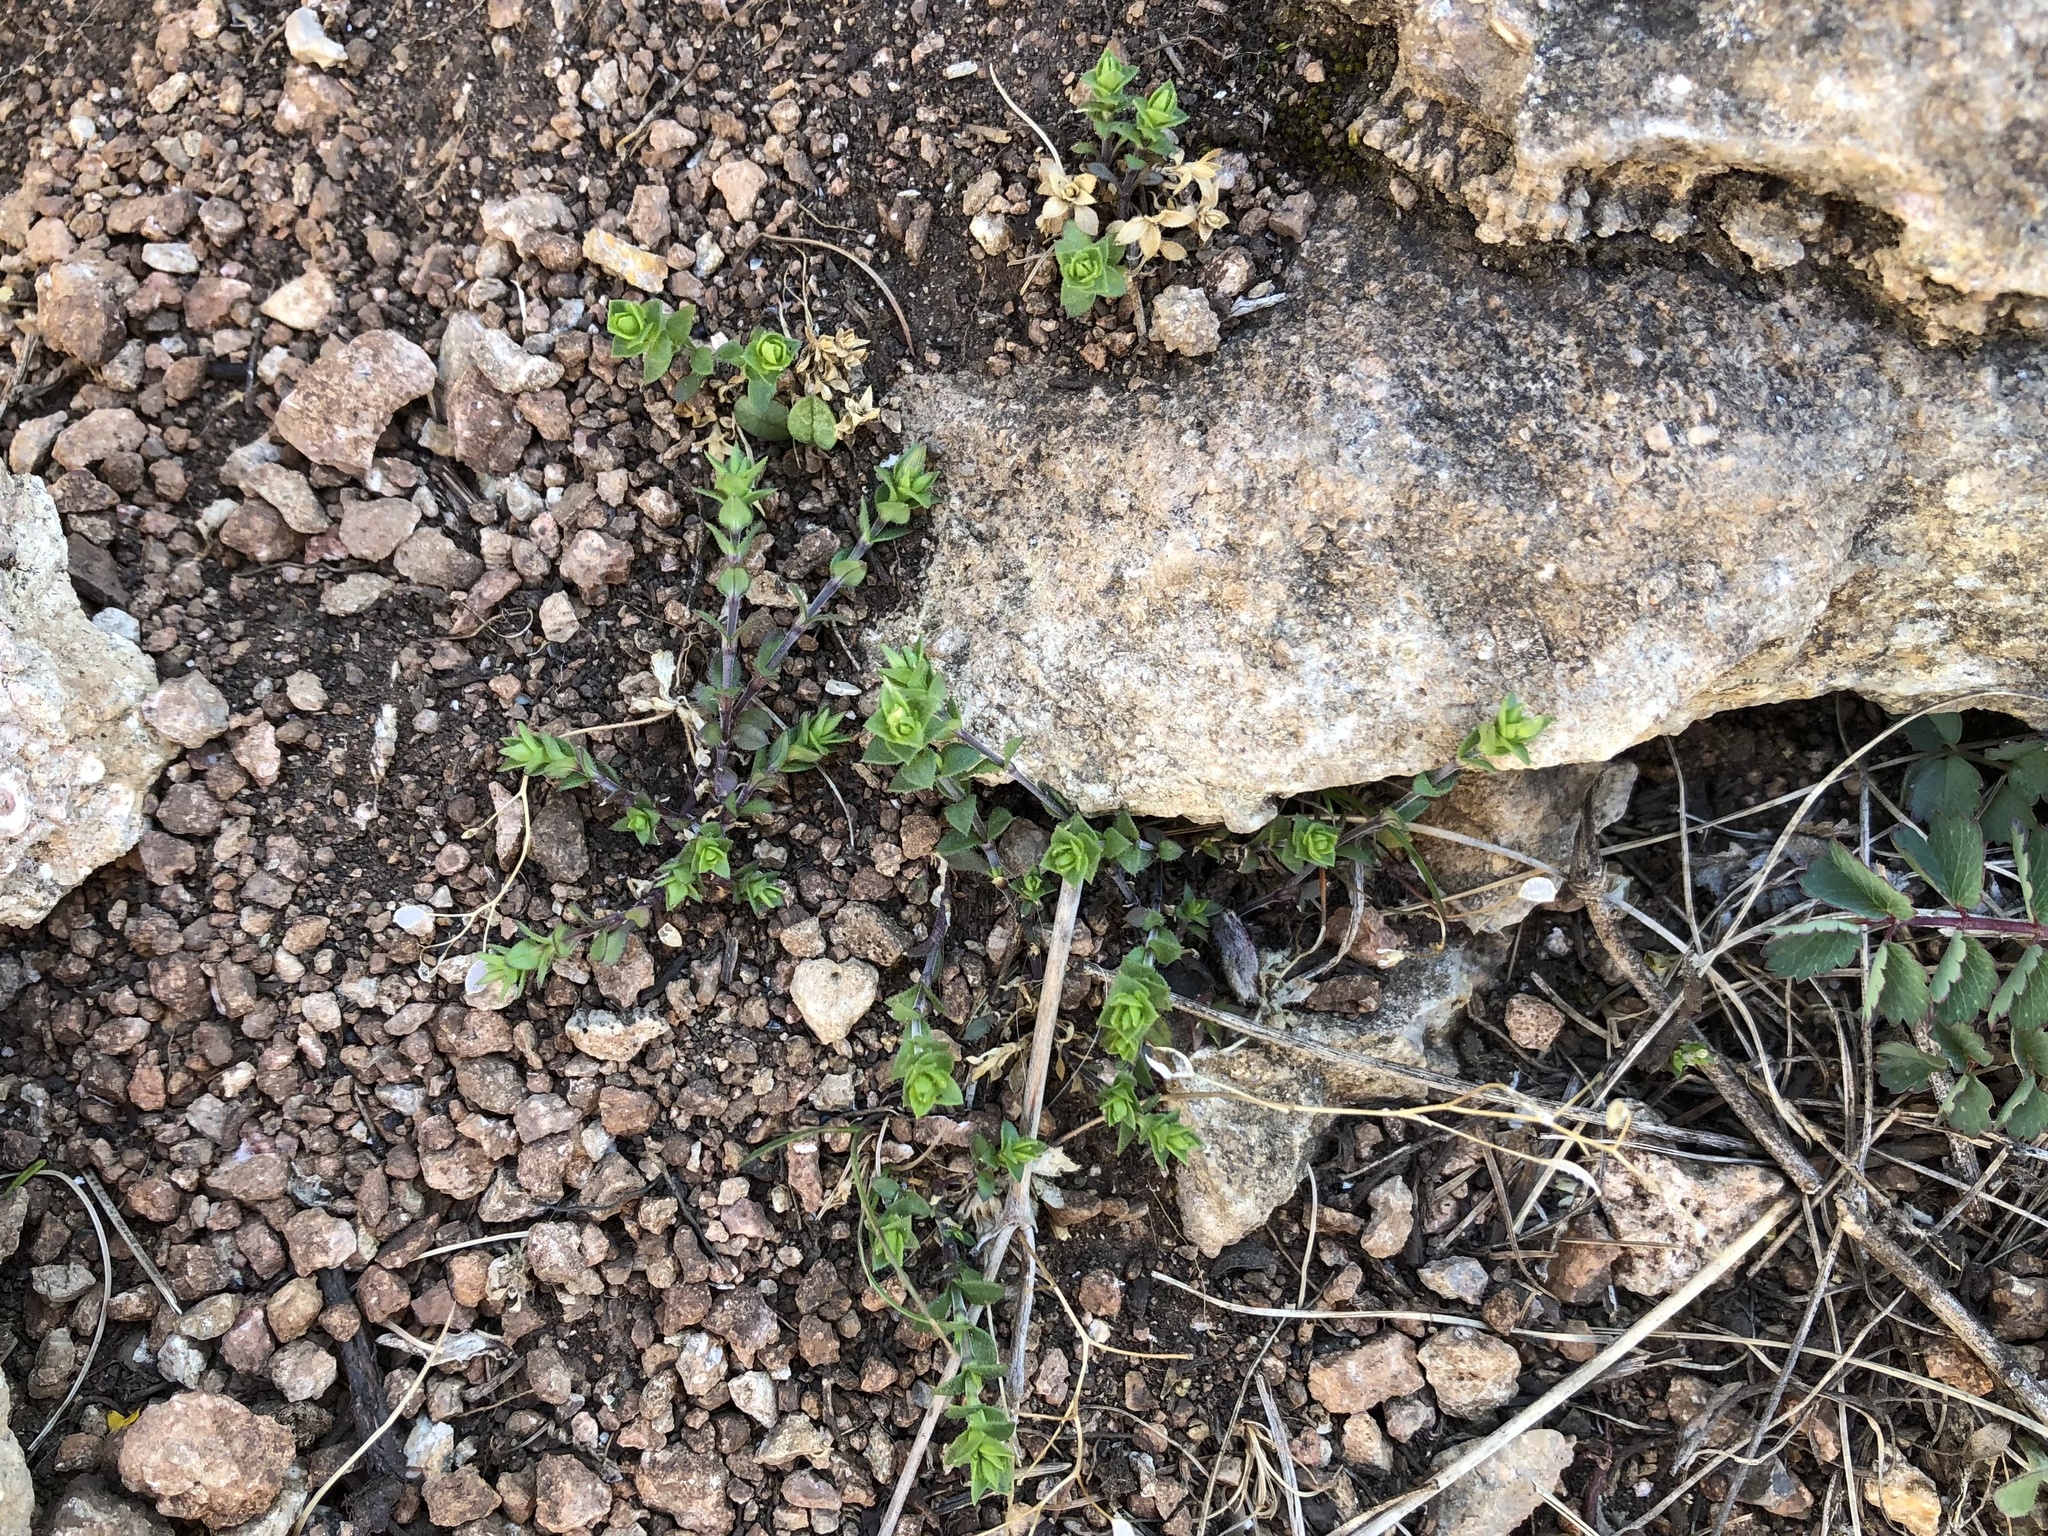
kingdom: Plantae
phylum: Tracheophyta
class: Magnoliopsida
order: Caryophyllales
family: Caryophyllaceae
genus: Arenaria
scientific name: Arenaria serpyllifolia
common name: Thyme-leaved sandwort
